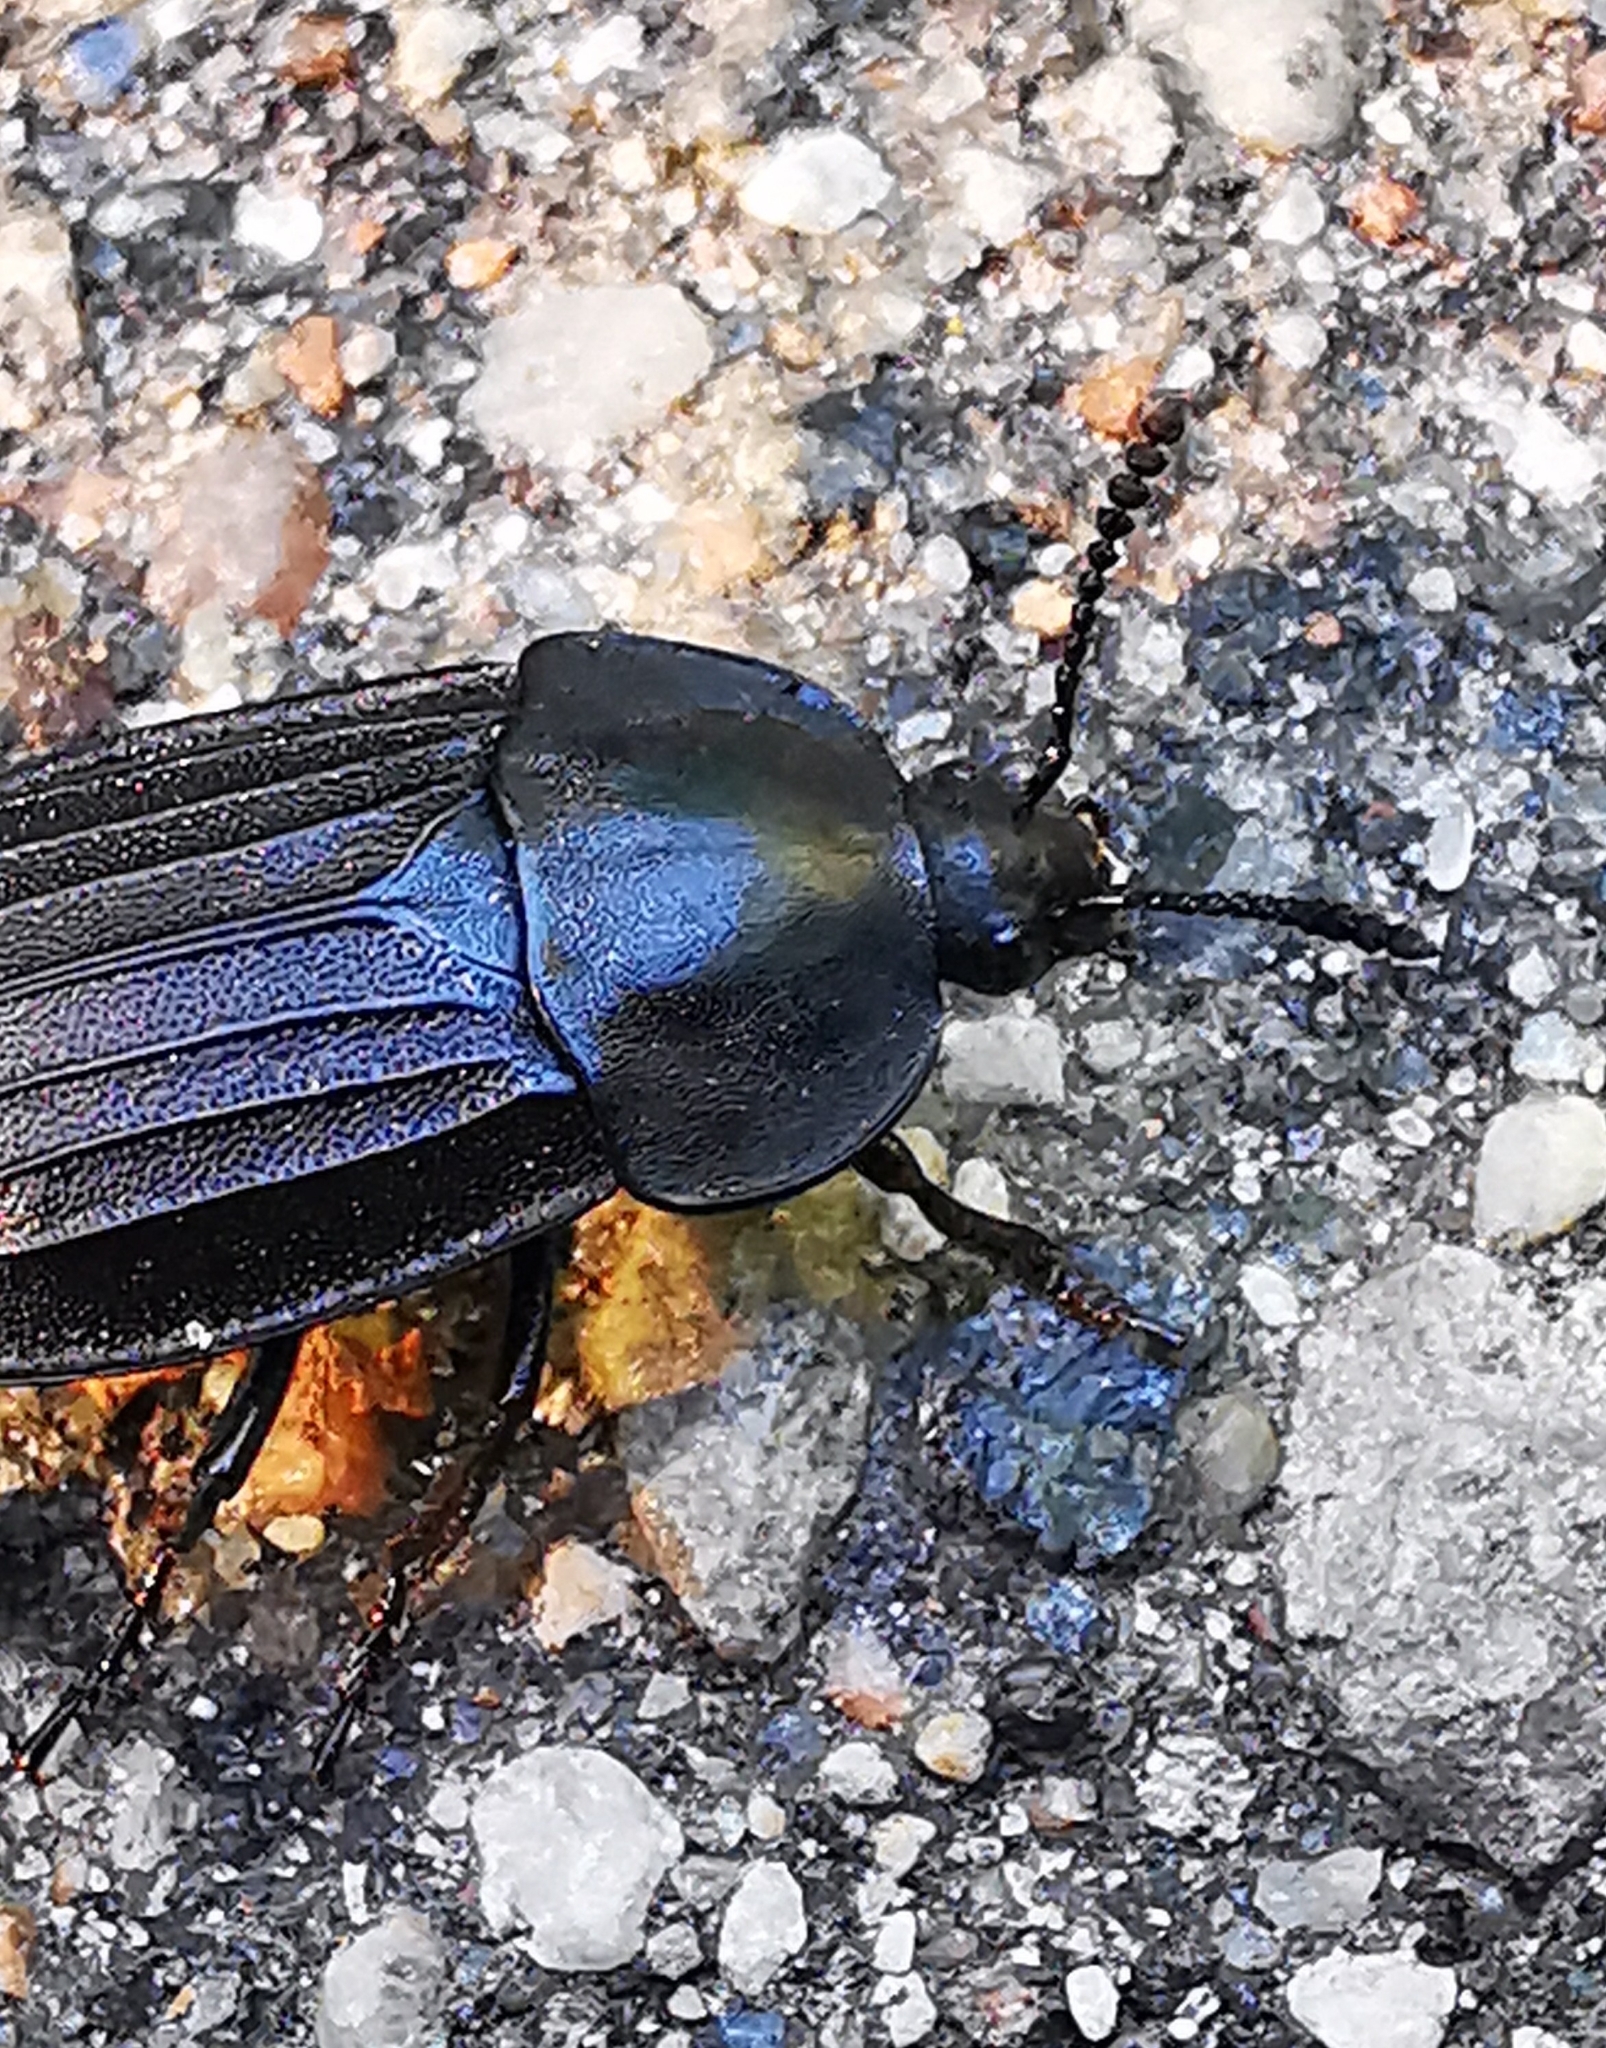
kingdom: Animalia
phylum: Arthropoda
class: Insecta
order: Coleoptera
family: Staphylinidae
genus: Silpha
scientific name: Silpha tristis
